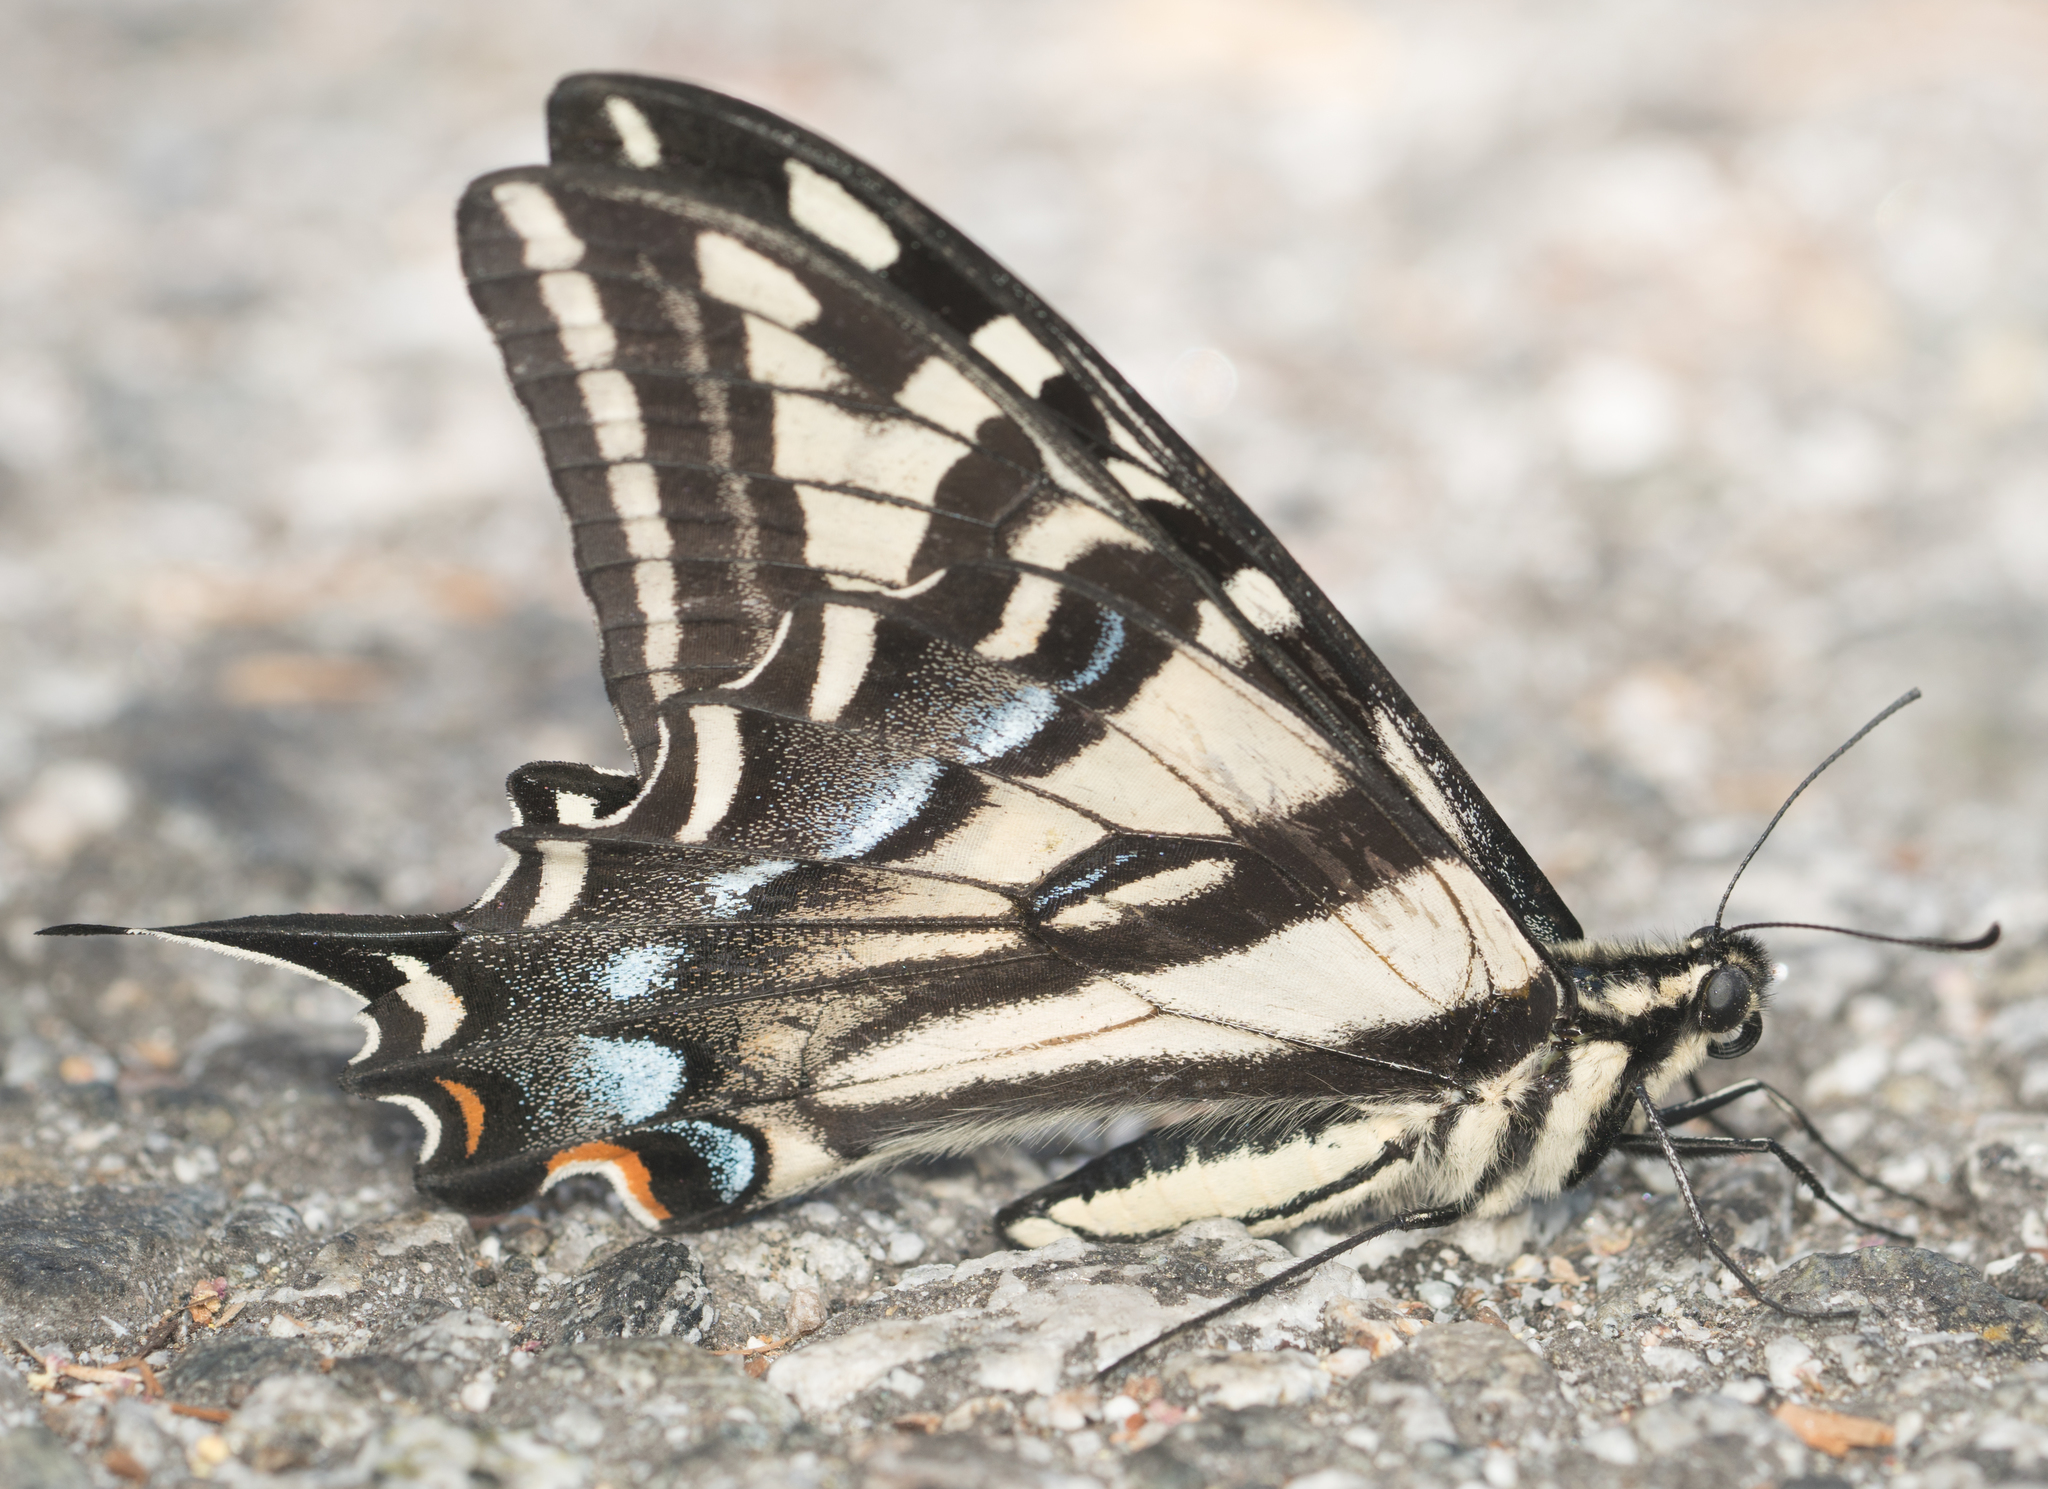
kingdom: Animalia
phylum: Arthropoda
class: Insecta
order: Lepidoptera
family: Papilionidae
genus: Papilio
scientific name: Papilio eurymedon
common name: Pale tiger swallowtail
